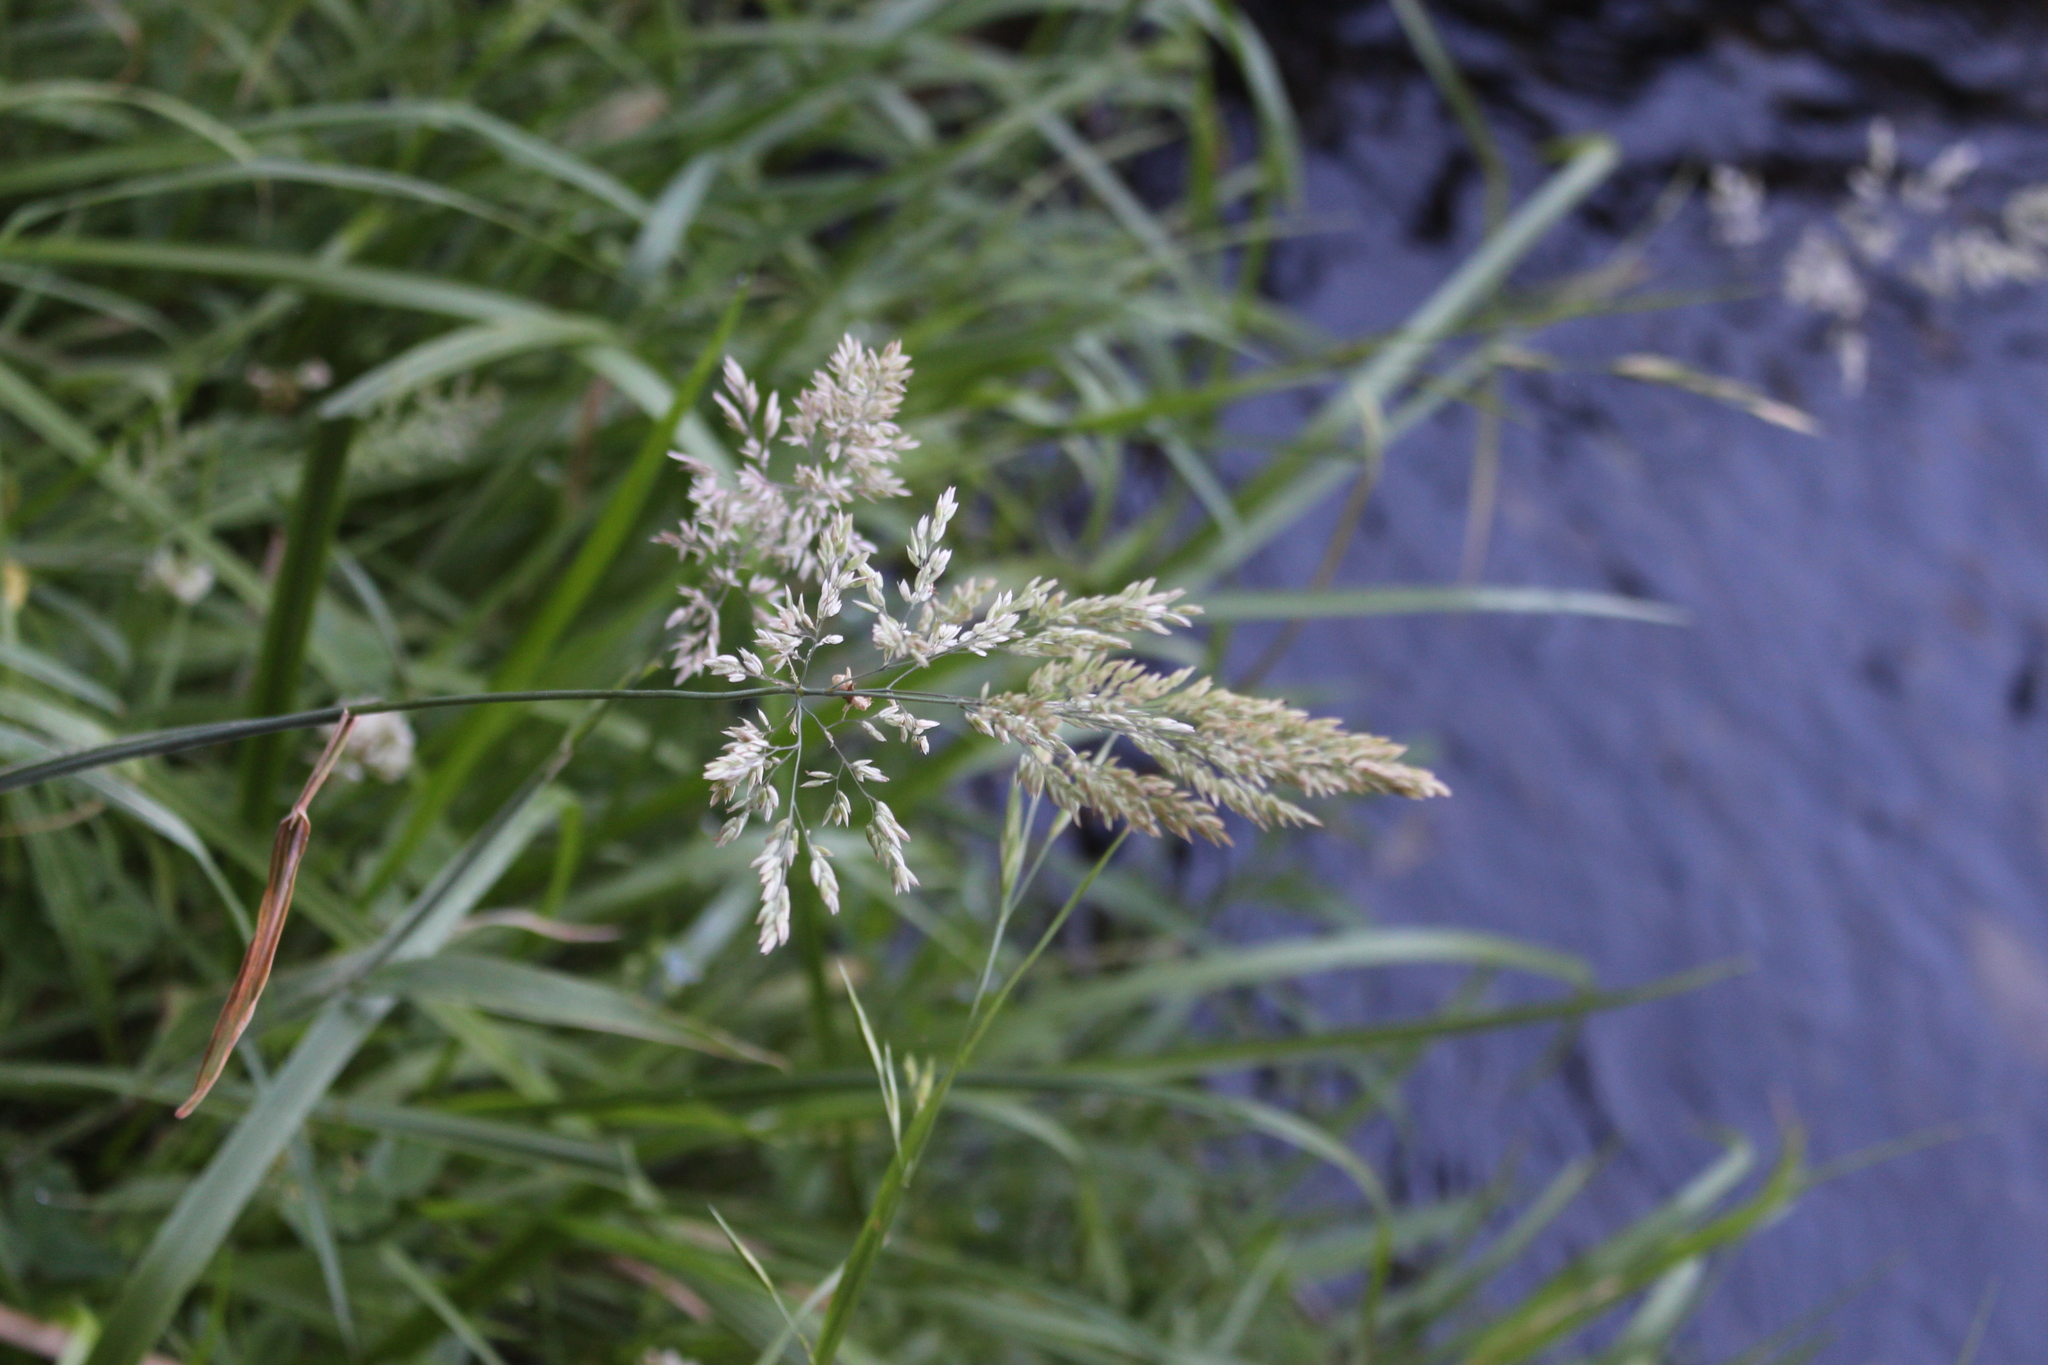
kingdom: Plantae
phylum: Tracheophyta
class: Liliopsida
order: Poales
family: Poaceae
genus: Holcus
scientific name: Holcus lanatus
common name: Yorkshire-fog
